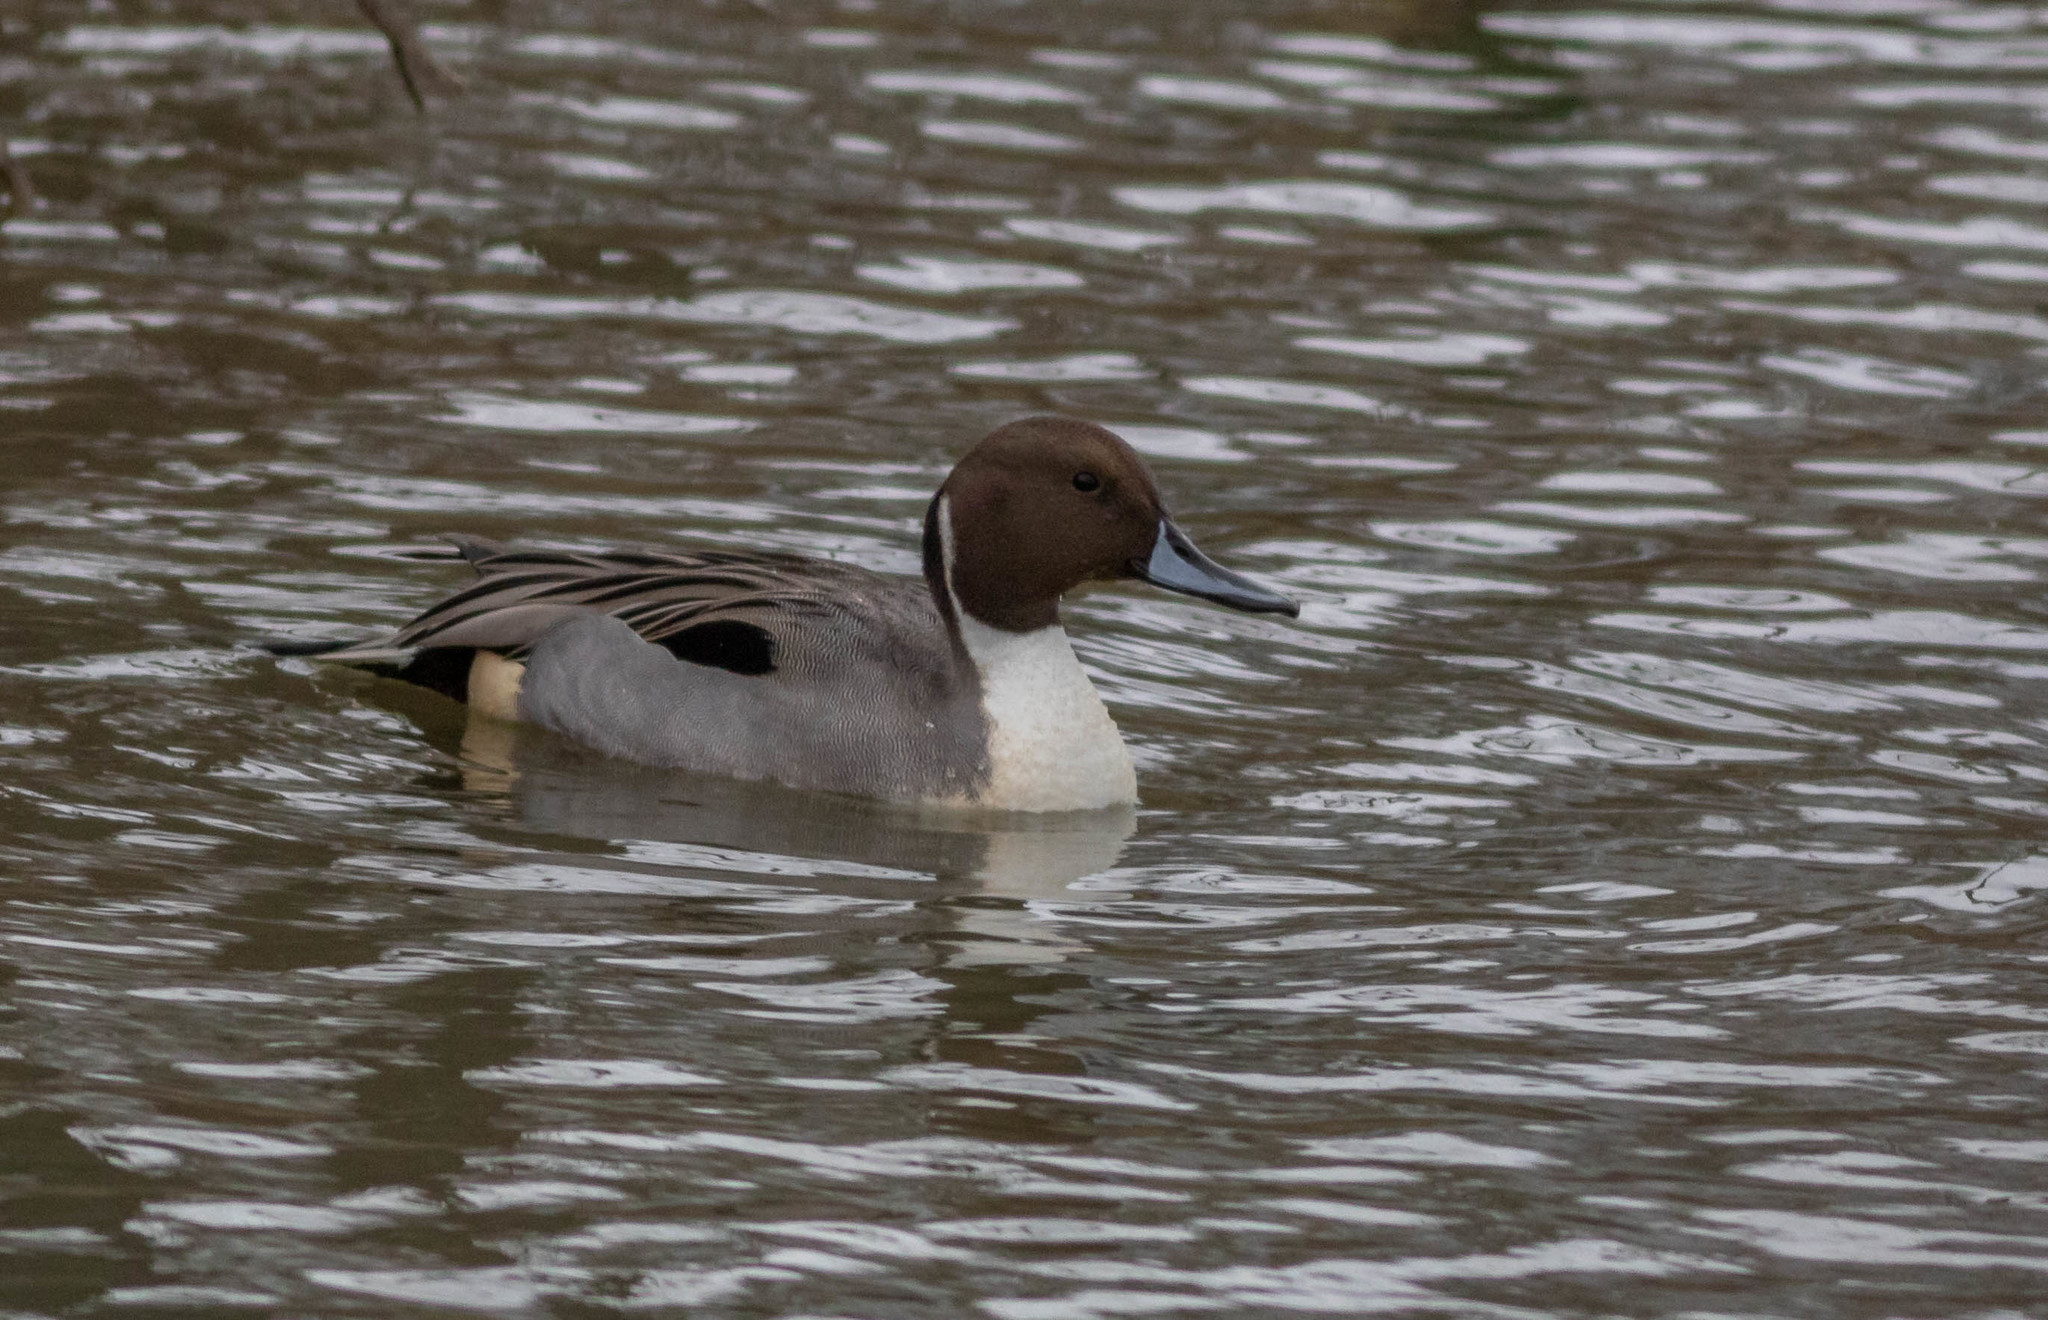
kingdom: Animalia
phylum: Chordata
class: Aves
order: Anseriformes
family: Anatidae
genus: Anas
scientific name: Anas acuta
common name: Northern pintail
